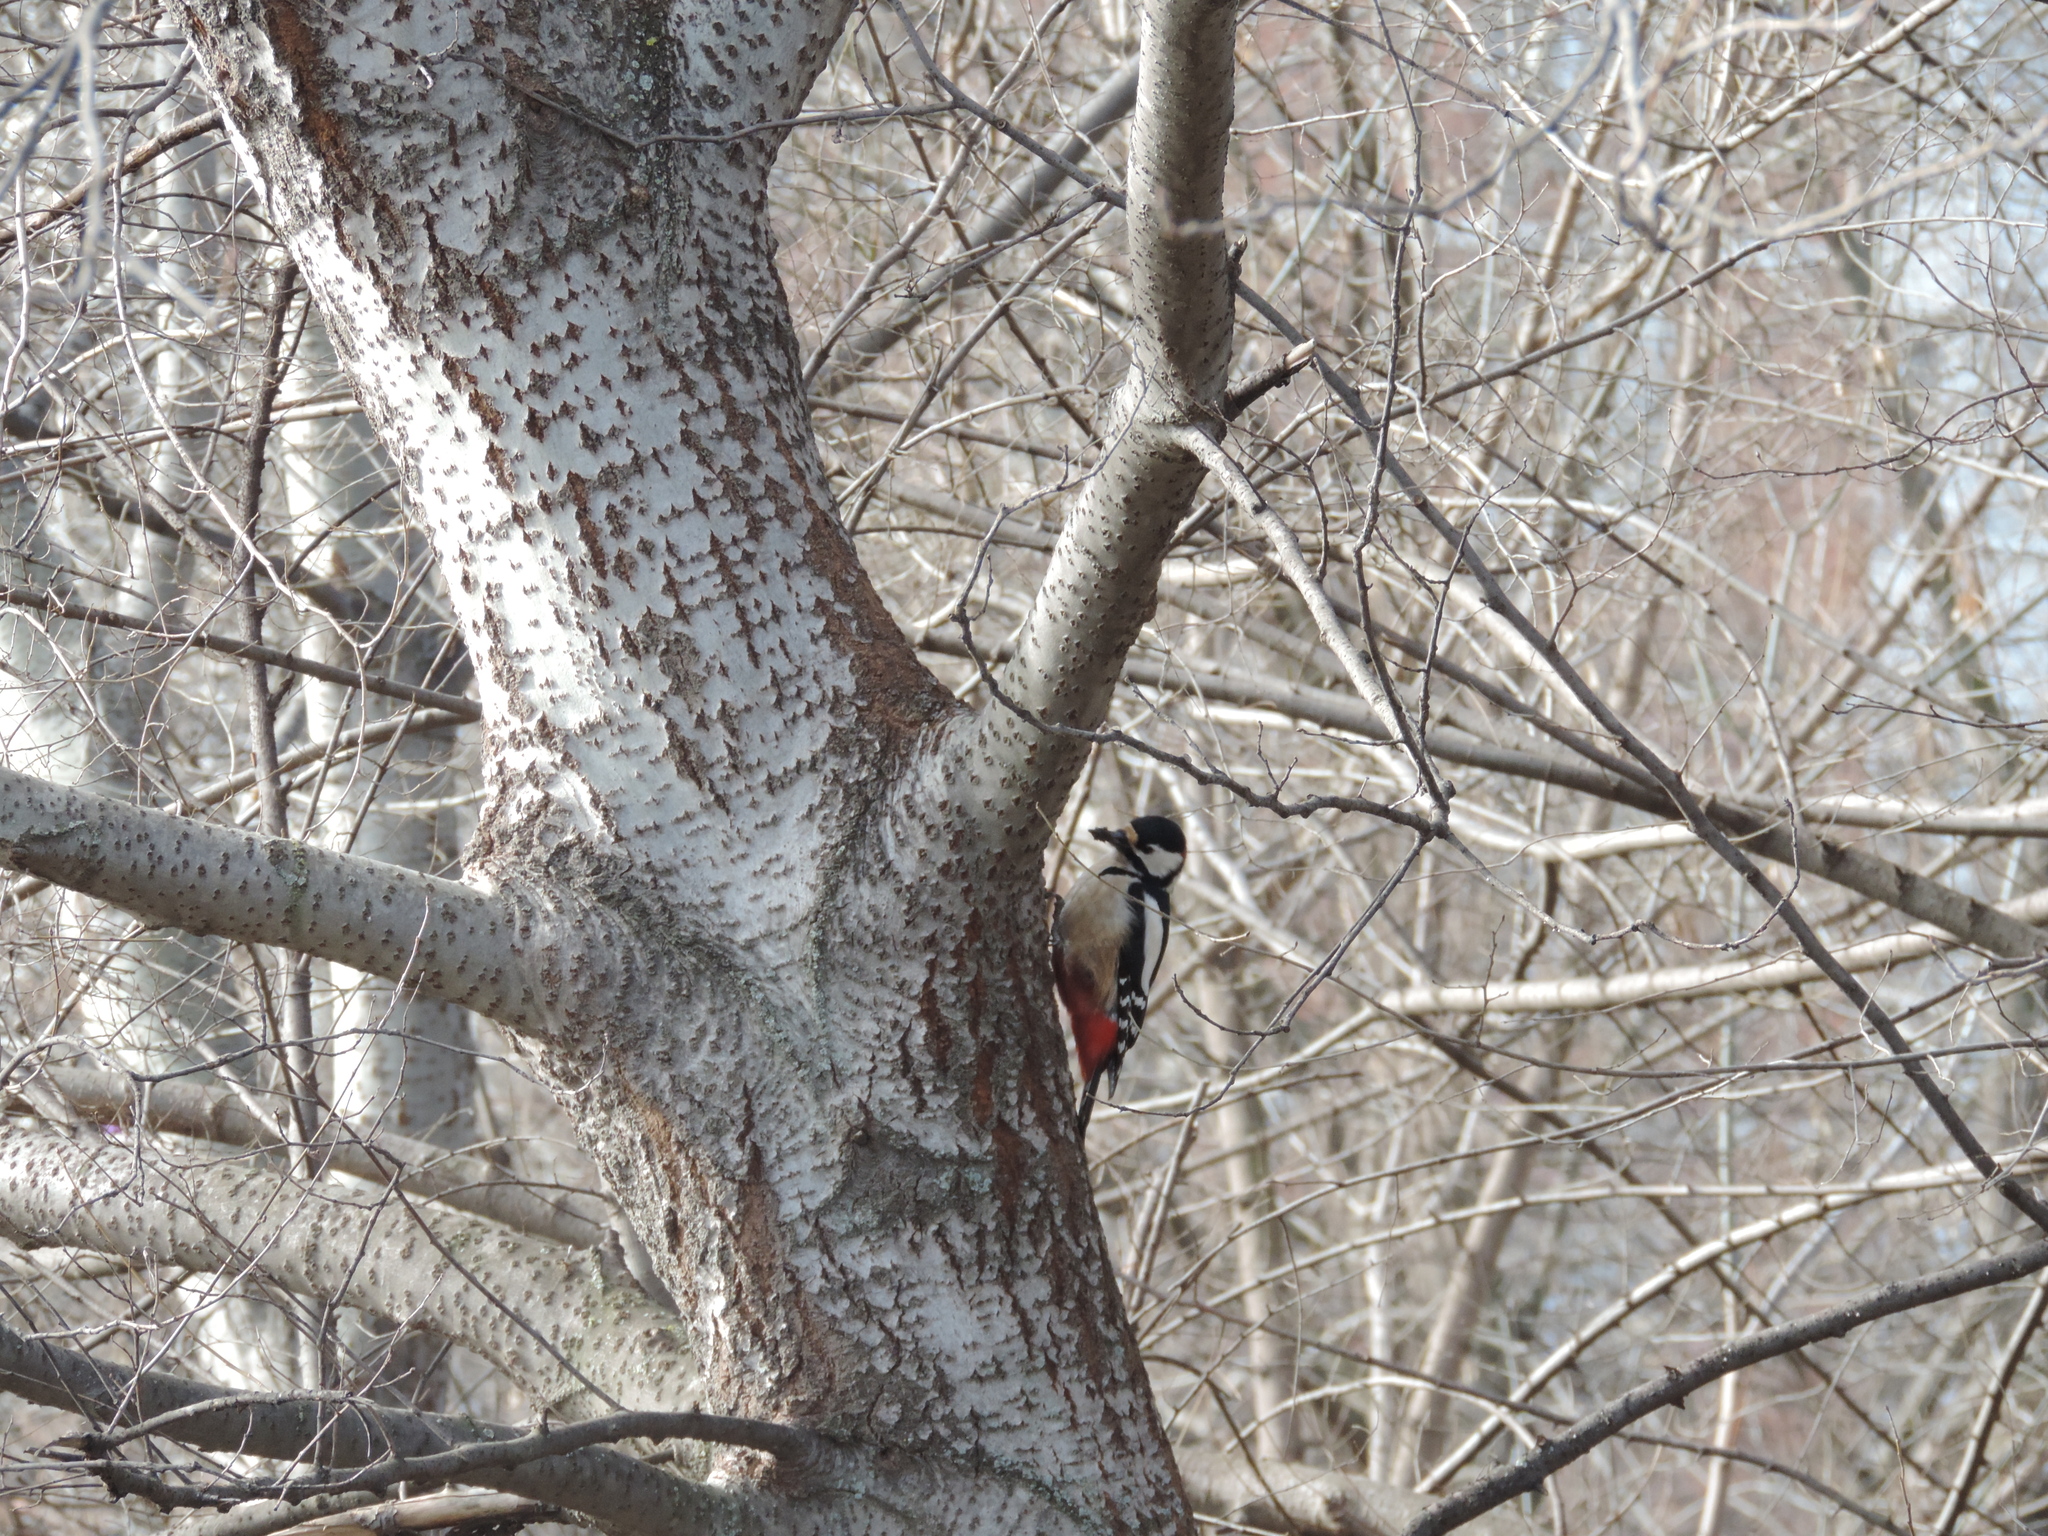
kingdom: Animalia
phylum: Chordata
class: Aves
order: Piciformes
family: Picidae
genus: Dendrocopos
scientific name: Dendrocopos major
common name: Great spotted woodpecker
